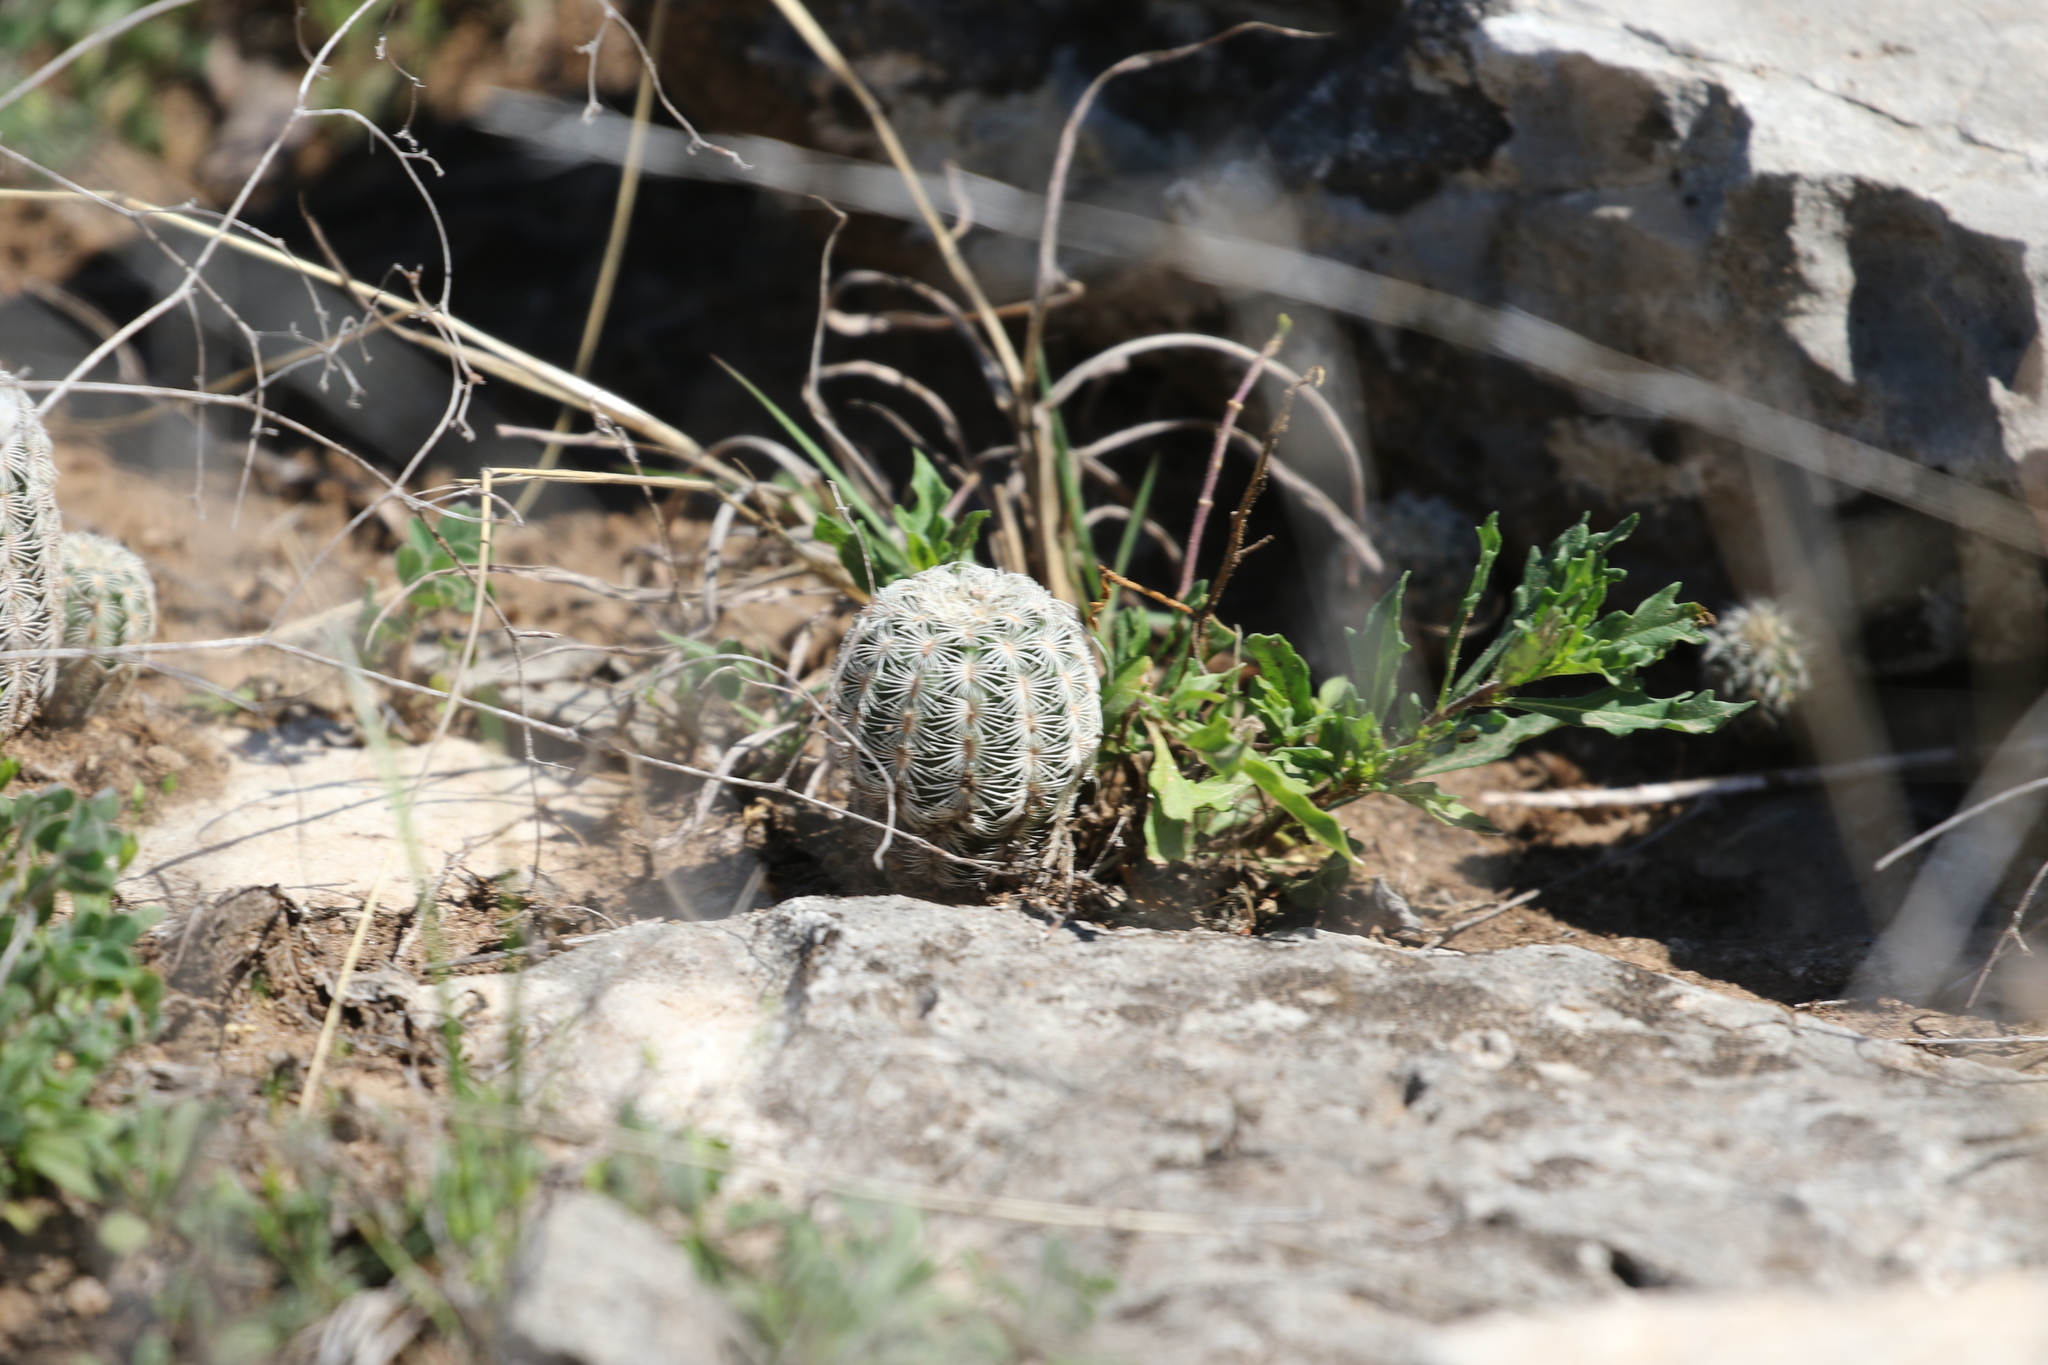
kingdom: Plantae
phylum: Tracheophyta
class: Magnoliopsida
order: Caryophyllales
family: Cactaceae
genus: Echinocereus
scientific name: Echinocereus reichenbachii
